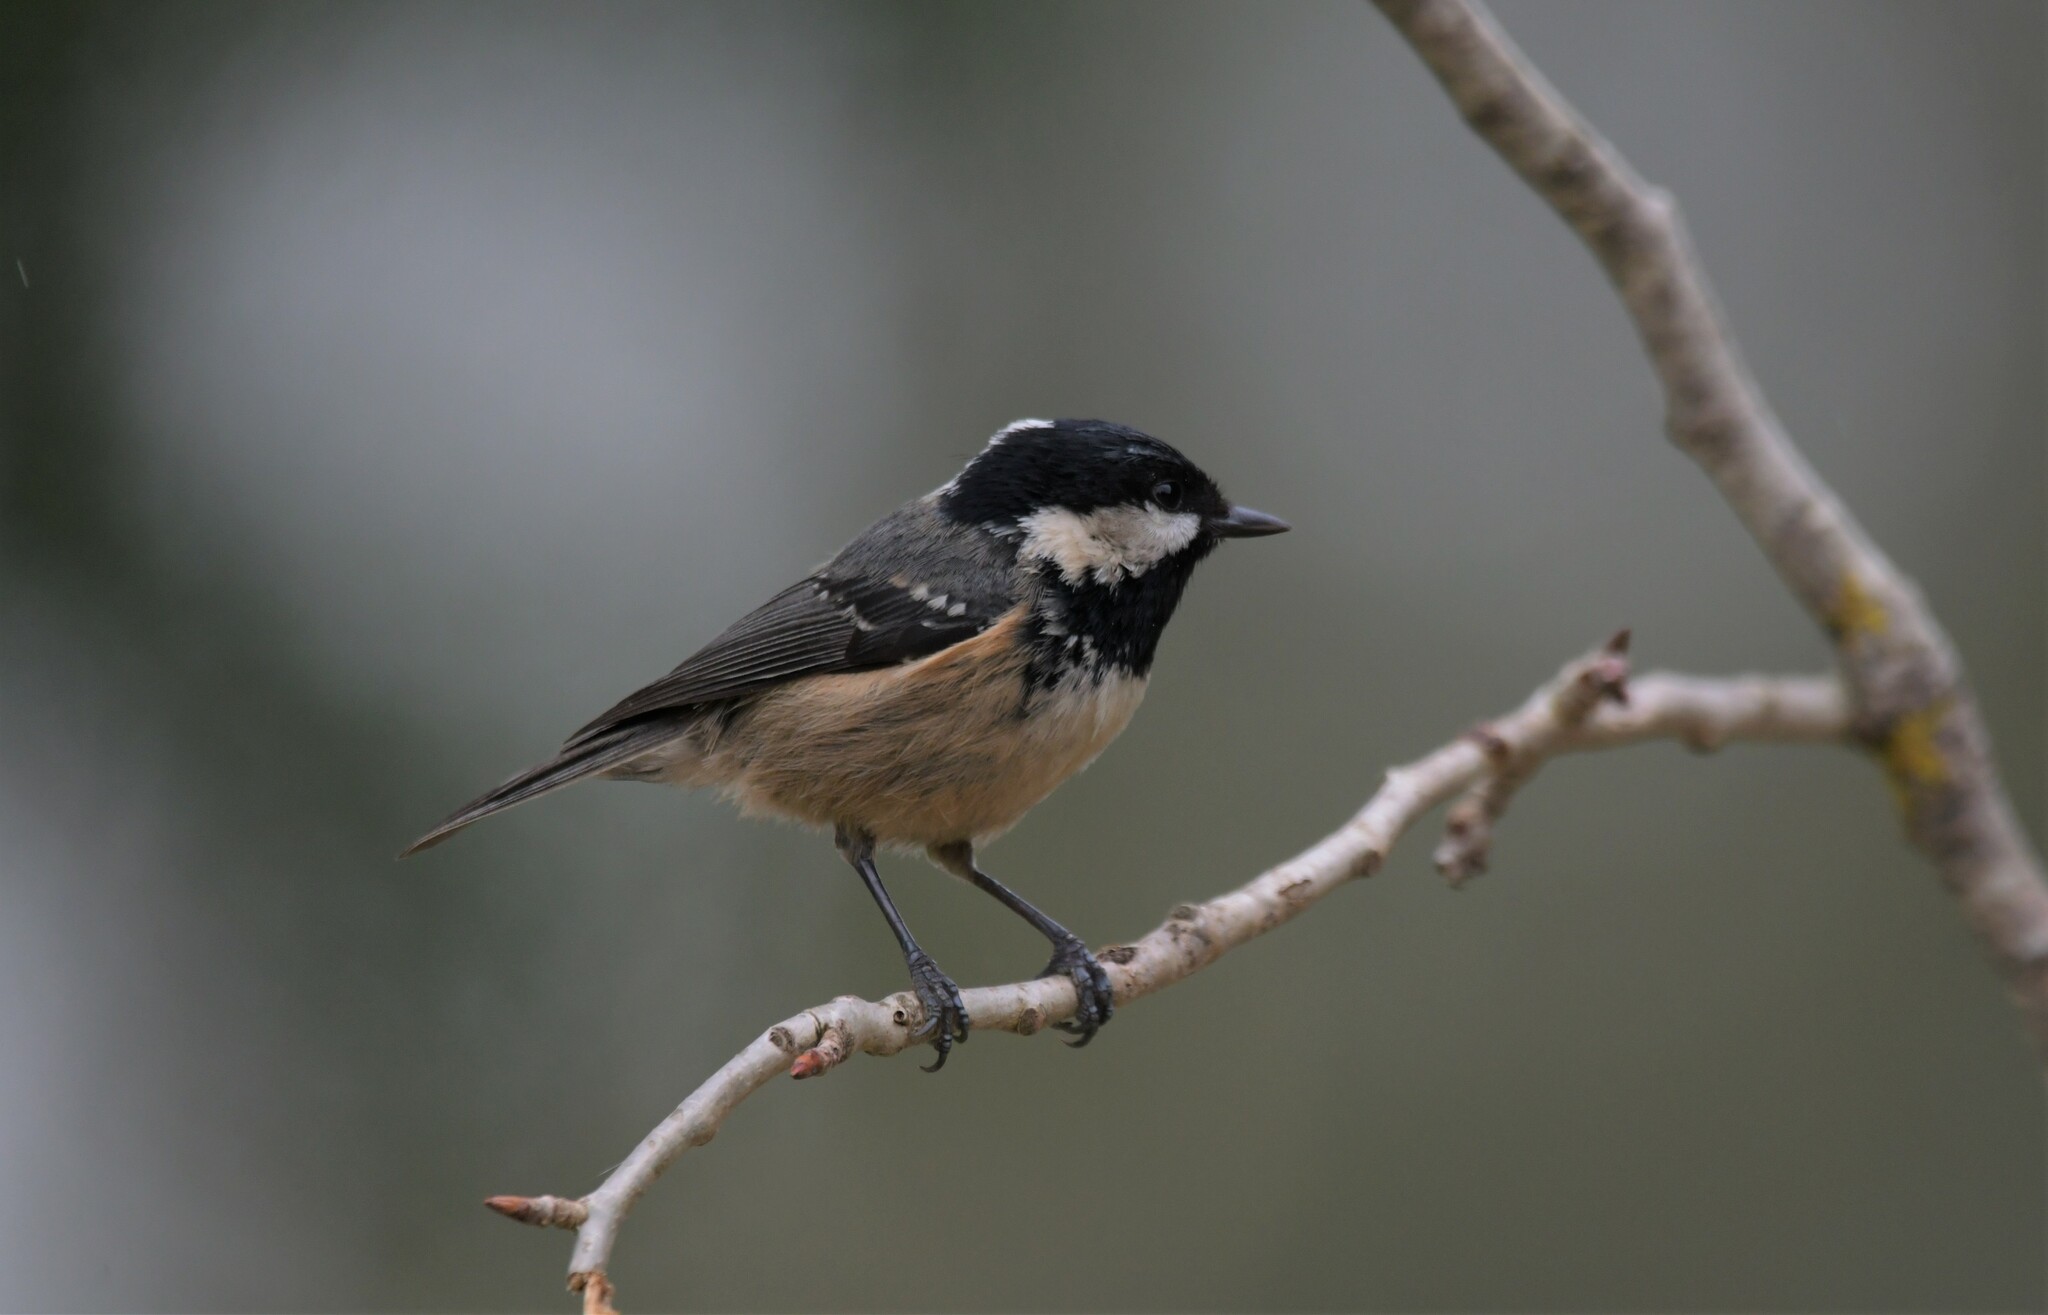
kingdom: Animalia
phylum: Chordata
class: Aves
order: Passeriformes
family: Paridae
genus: Periparus
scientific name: Periparus ater
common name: Coal tit
